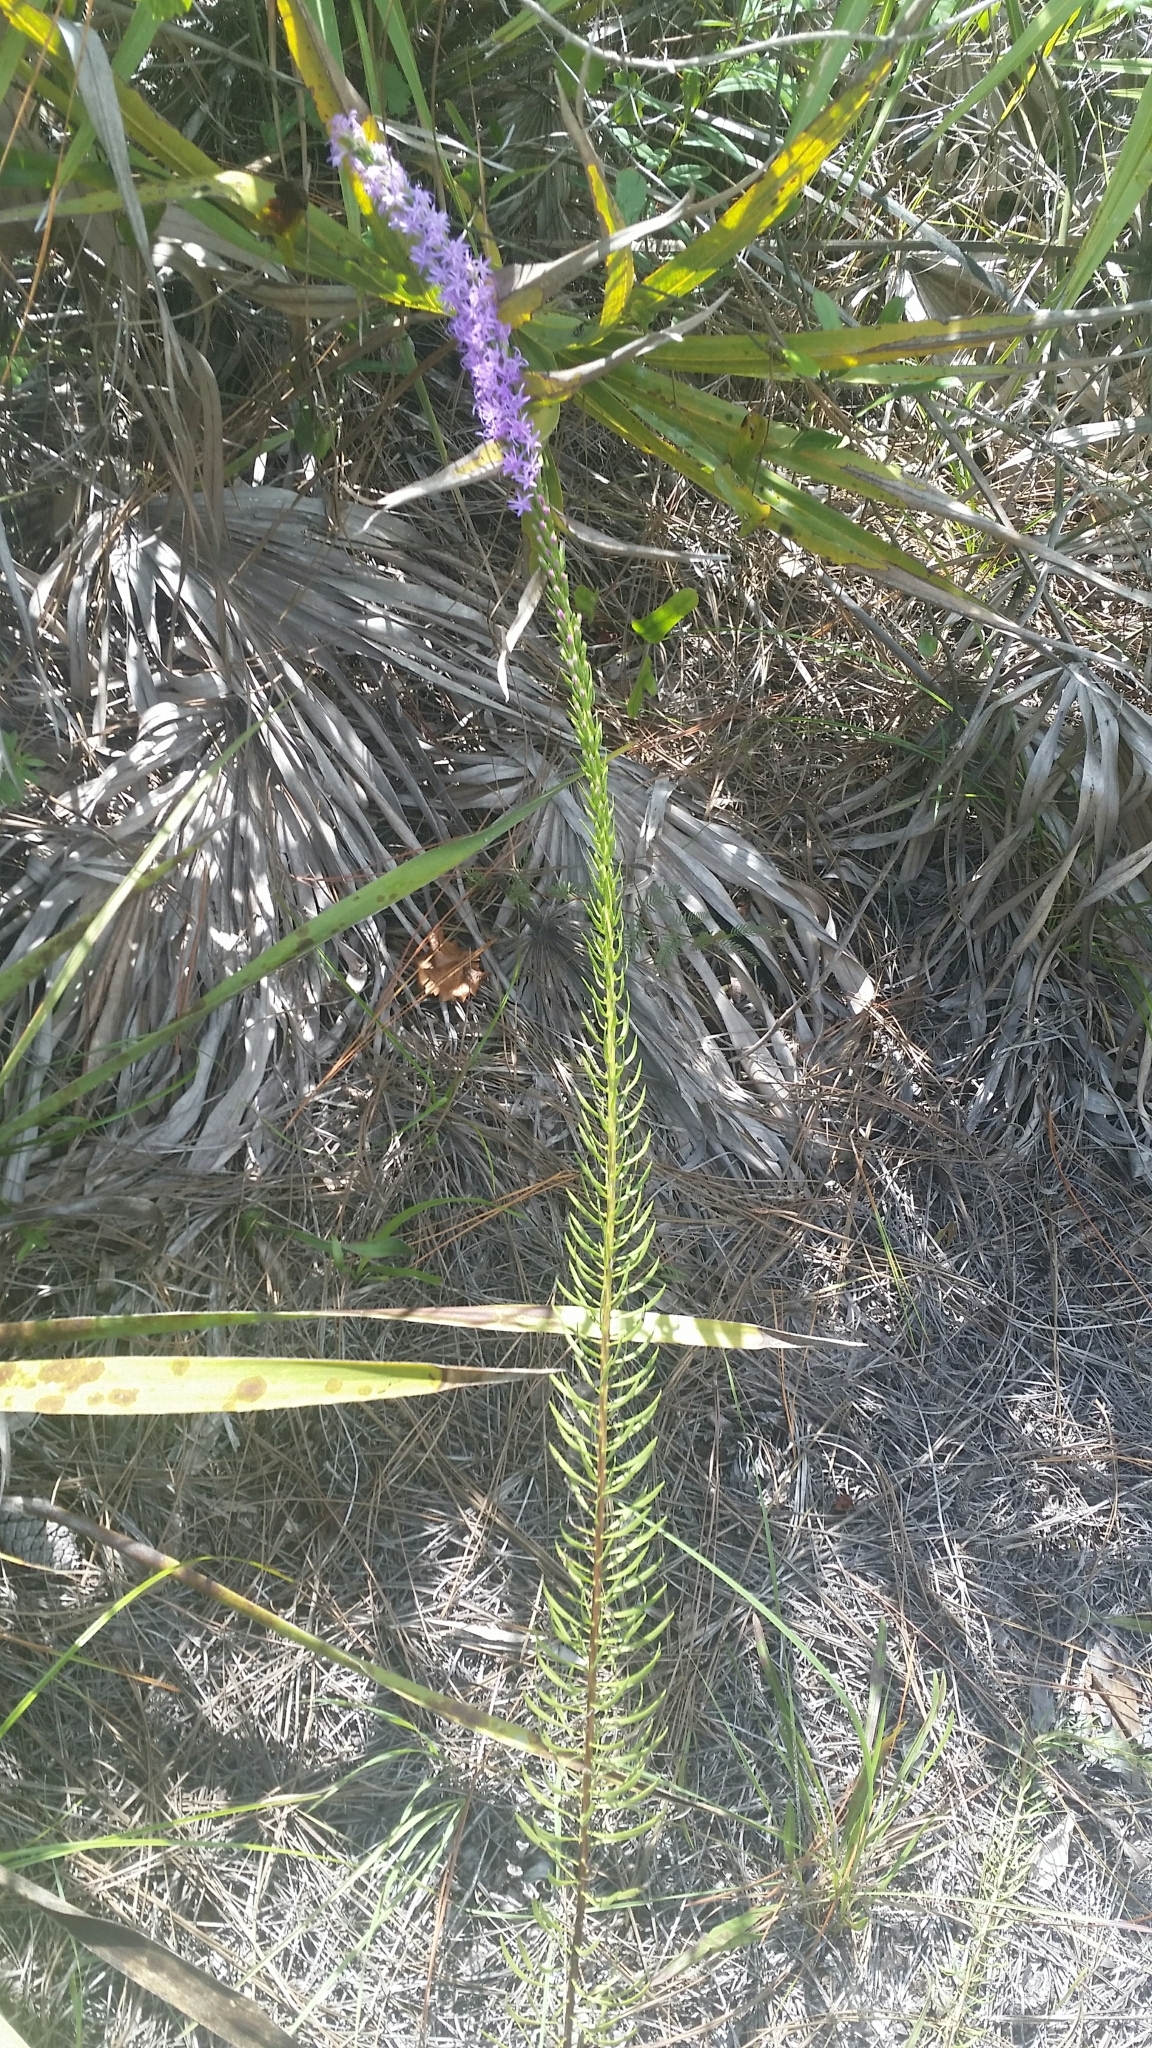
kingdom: Plantae
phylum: Tracheophyta
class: Magnoliopsida
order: Asterales
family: Asteraceae
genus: Liatris
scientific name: Liatris chapmanii
